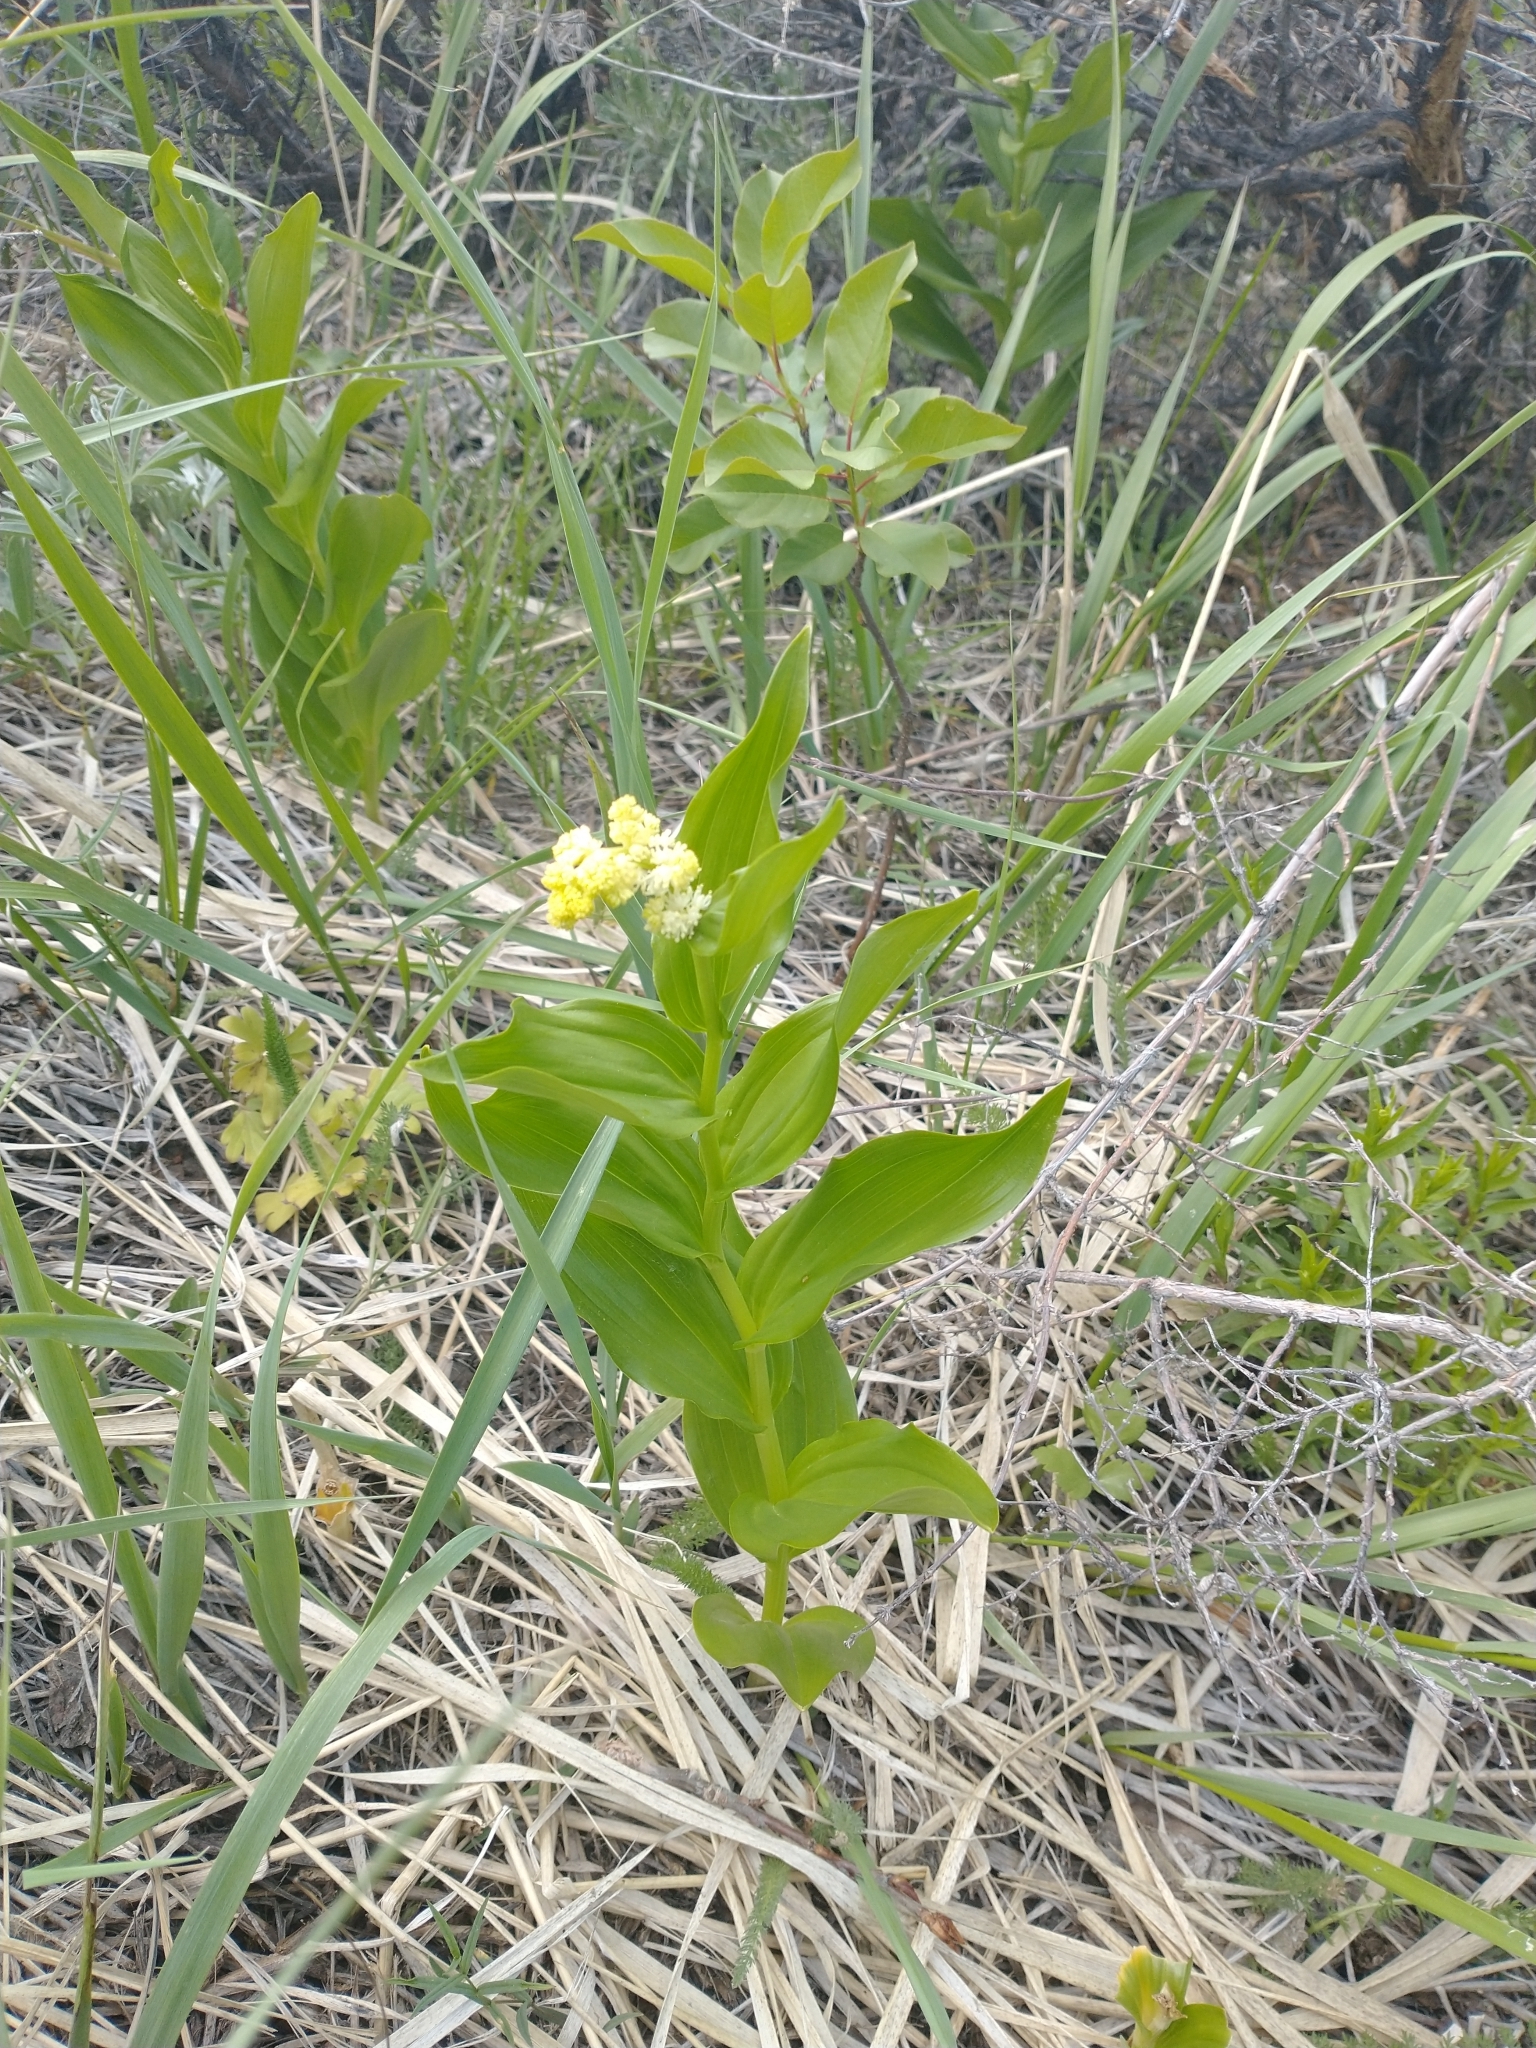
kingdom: Plantae
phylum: Tracheophyta
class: Liliopsida
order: Asparagales
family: Asparagaceae
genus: Maianthemum
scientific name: Maianthemum racemosum
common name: False spikenard
